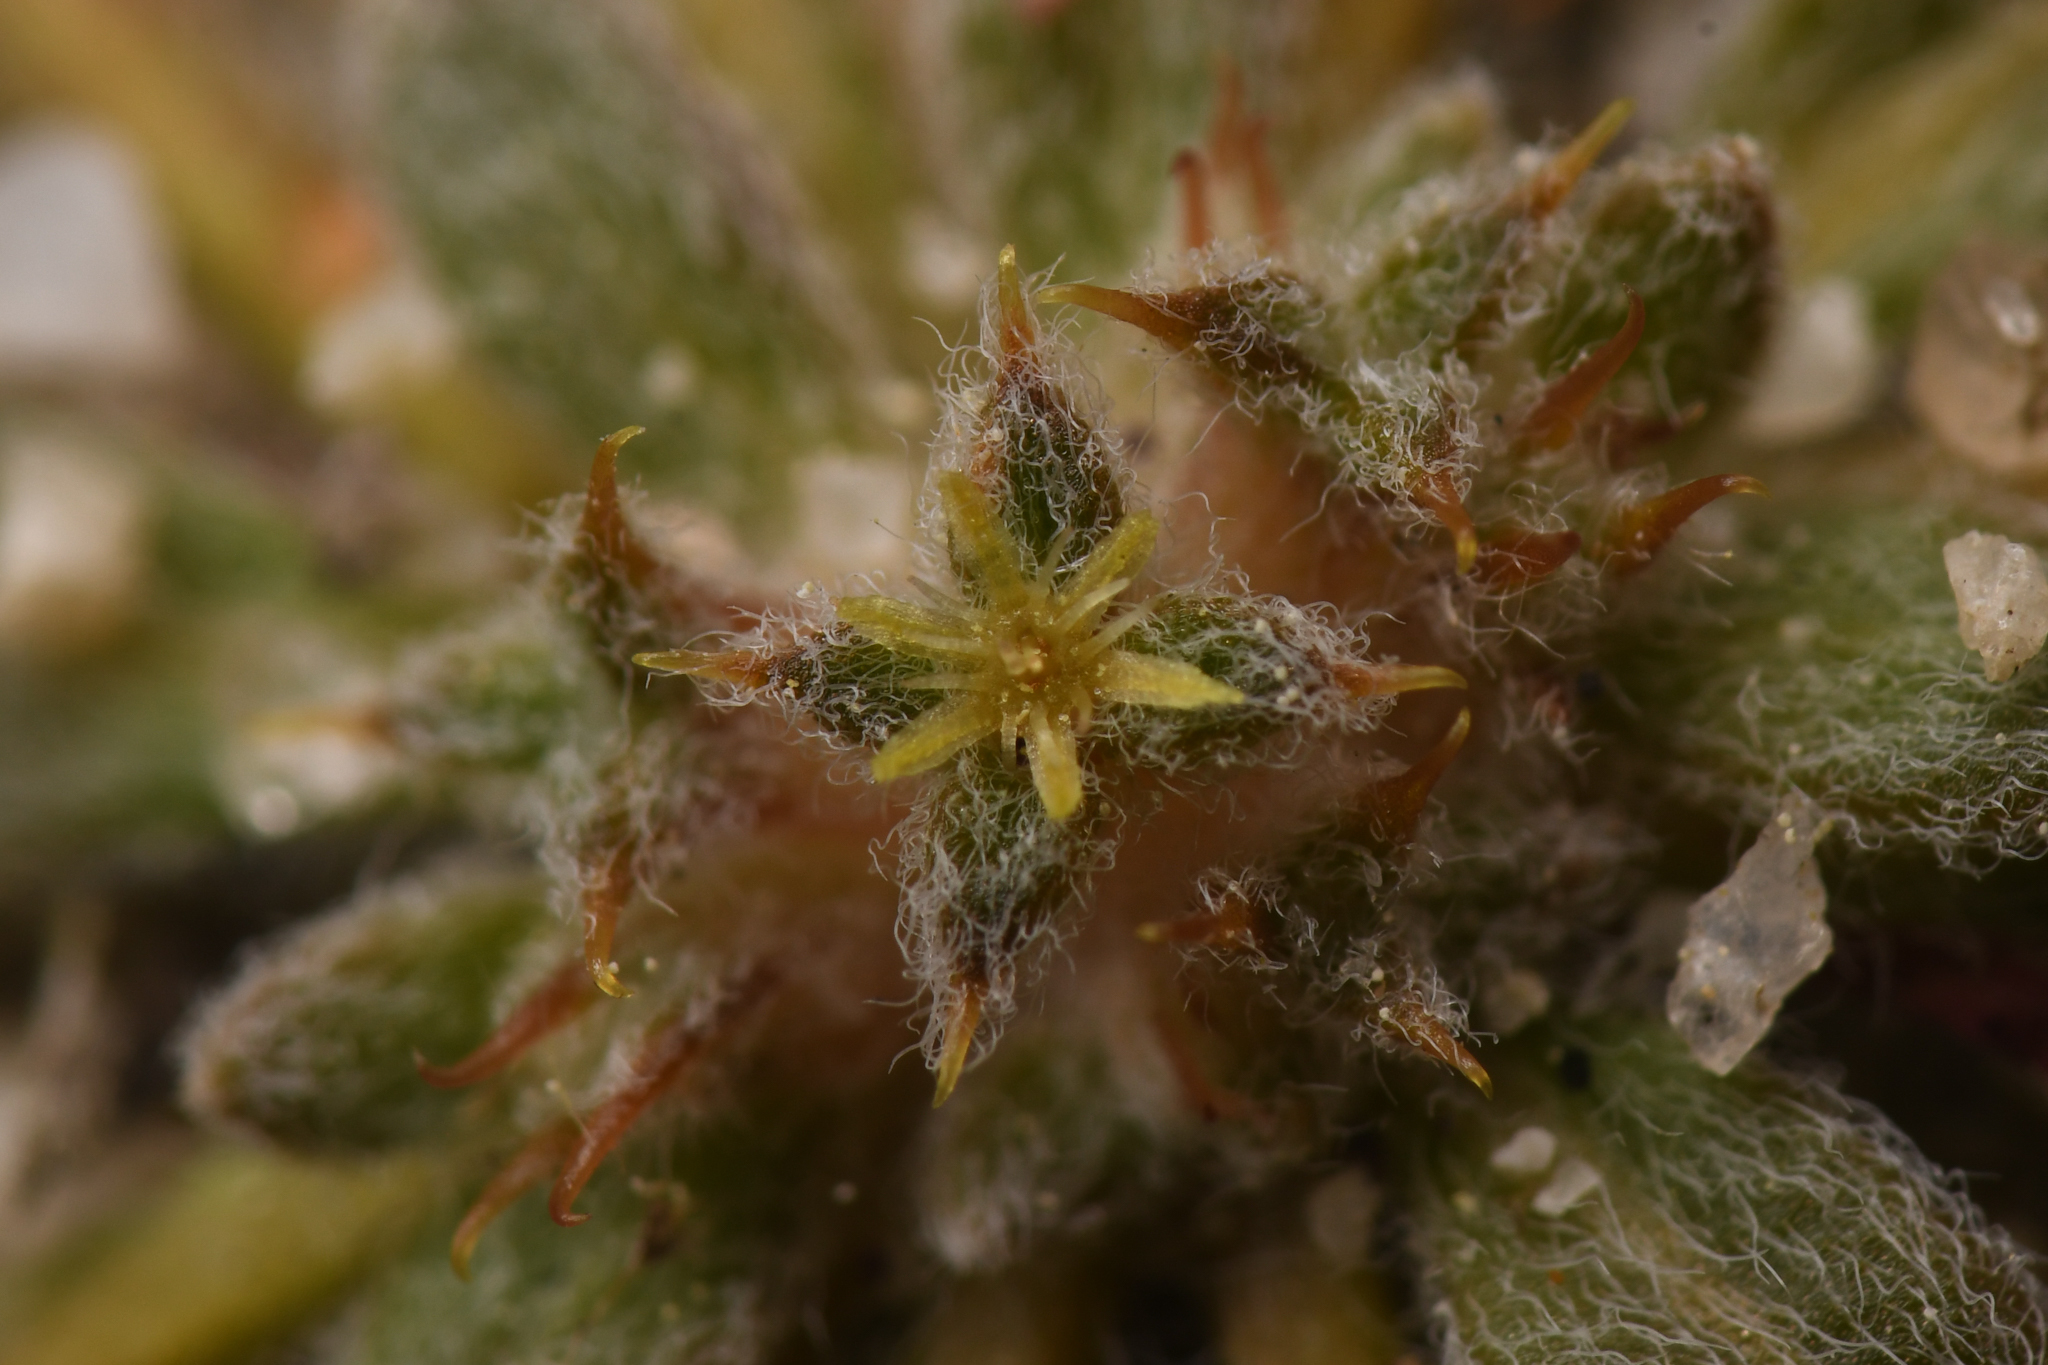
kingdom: Plantae
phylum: Tracheophyta
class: Magnoliopsida
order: Caryophyllales
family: Polygonaceae
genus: Chorizanthe
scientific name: Chorizanthe orcuttiana
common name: Orcutt's spineflower
